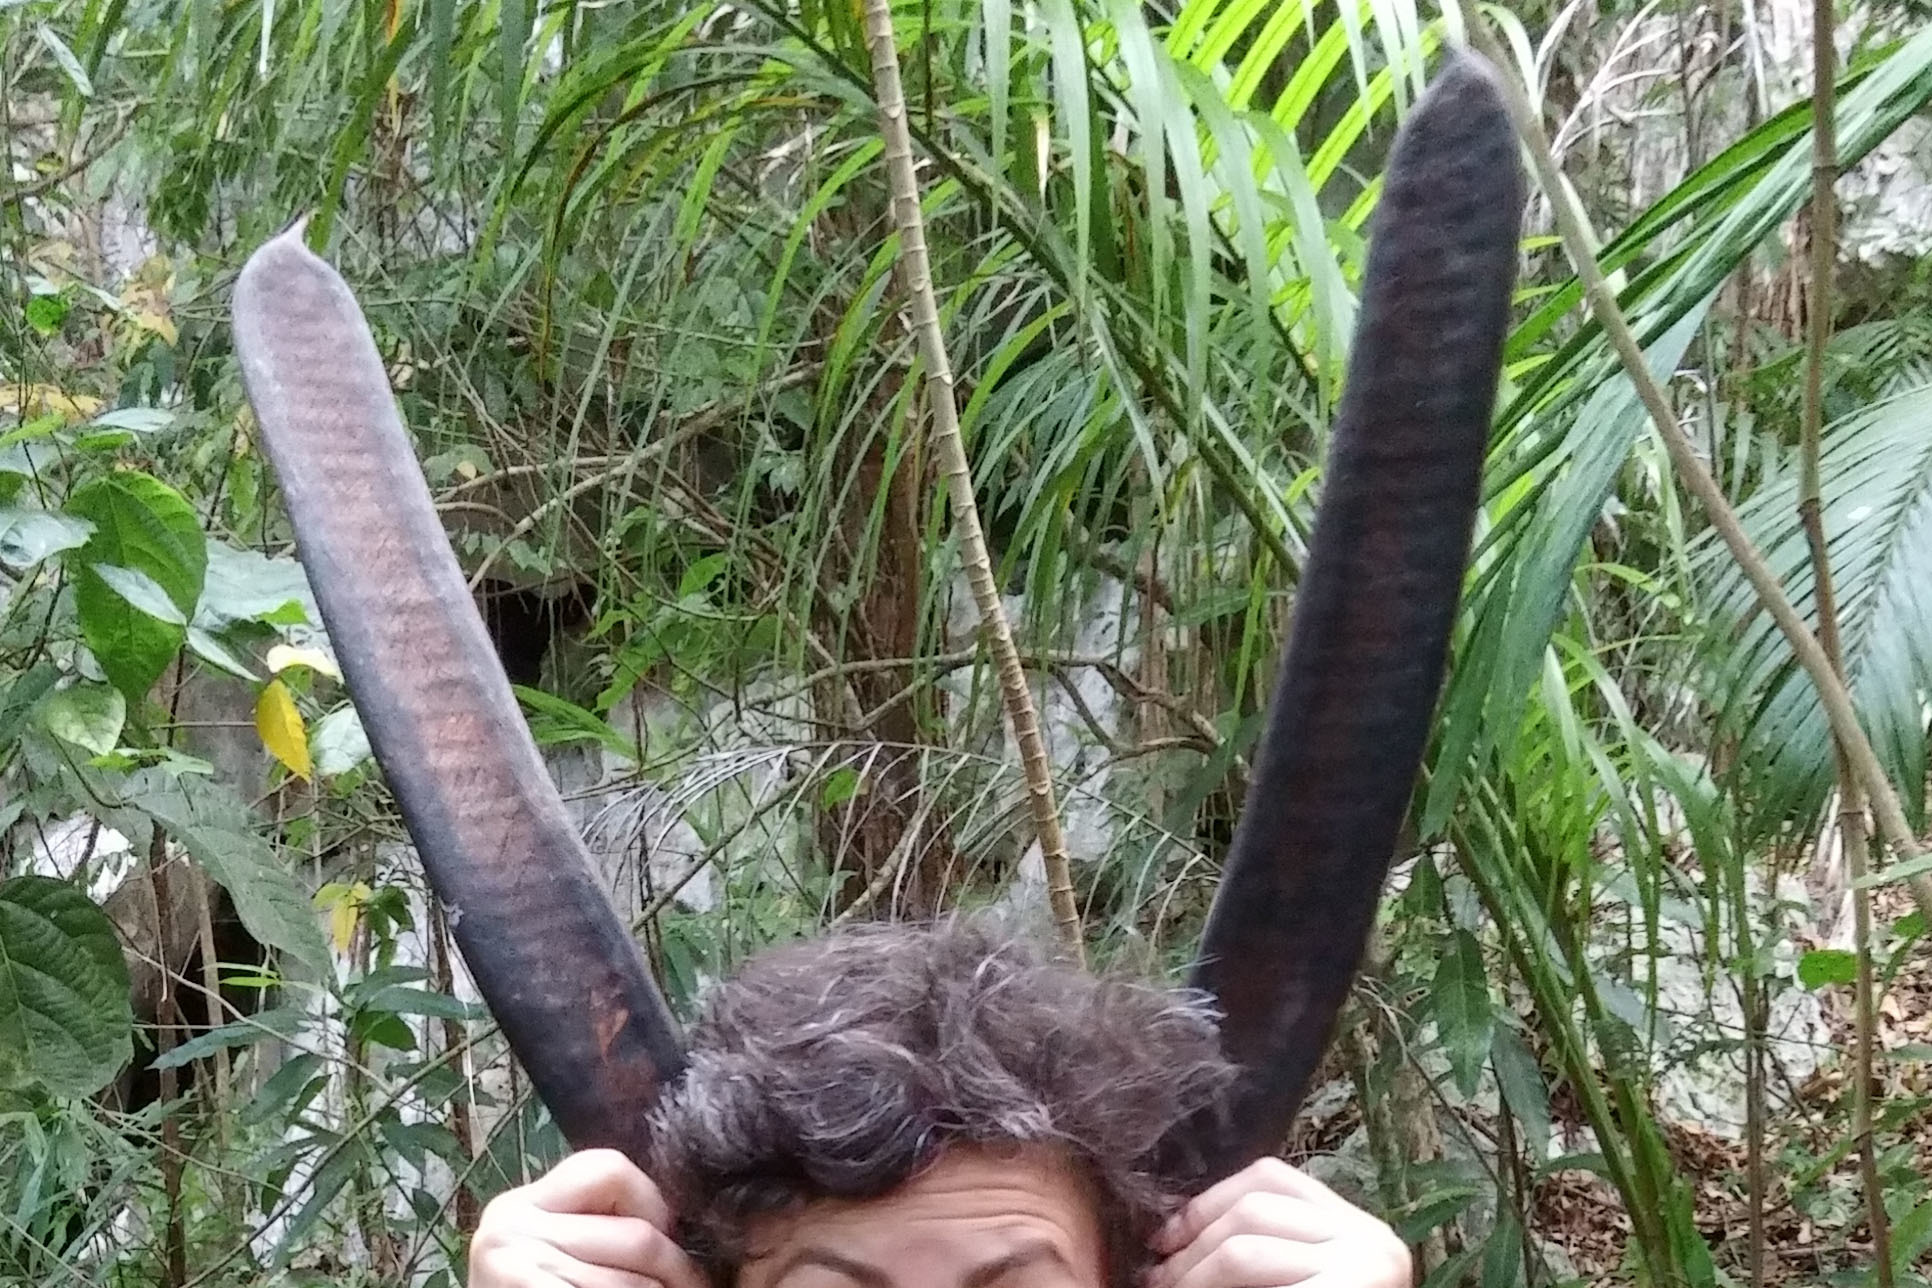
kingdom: Plantae
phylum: Tracheophyta
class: Magnoliopsida
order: Fabales
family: Fabaceae
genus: Delonix
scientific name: Delonix regia
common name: Royal poinciana
